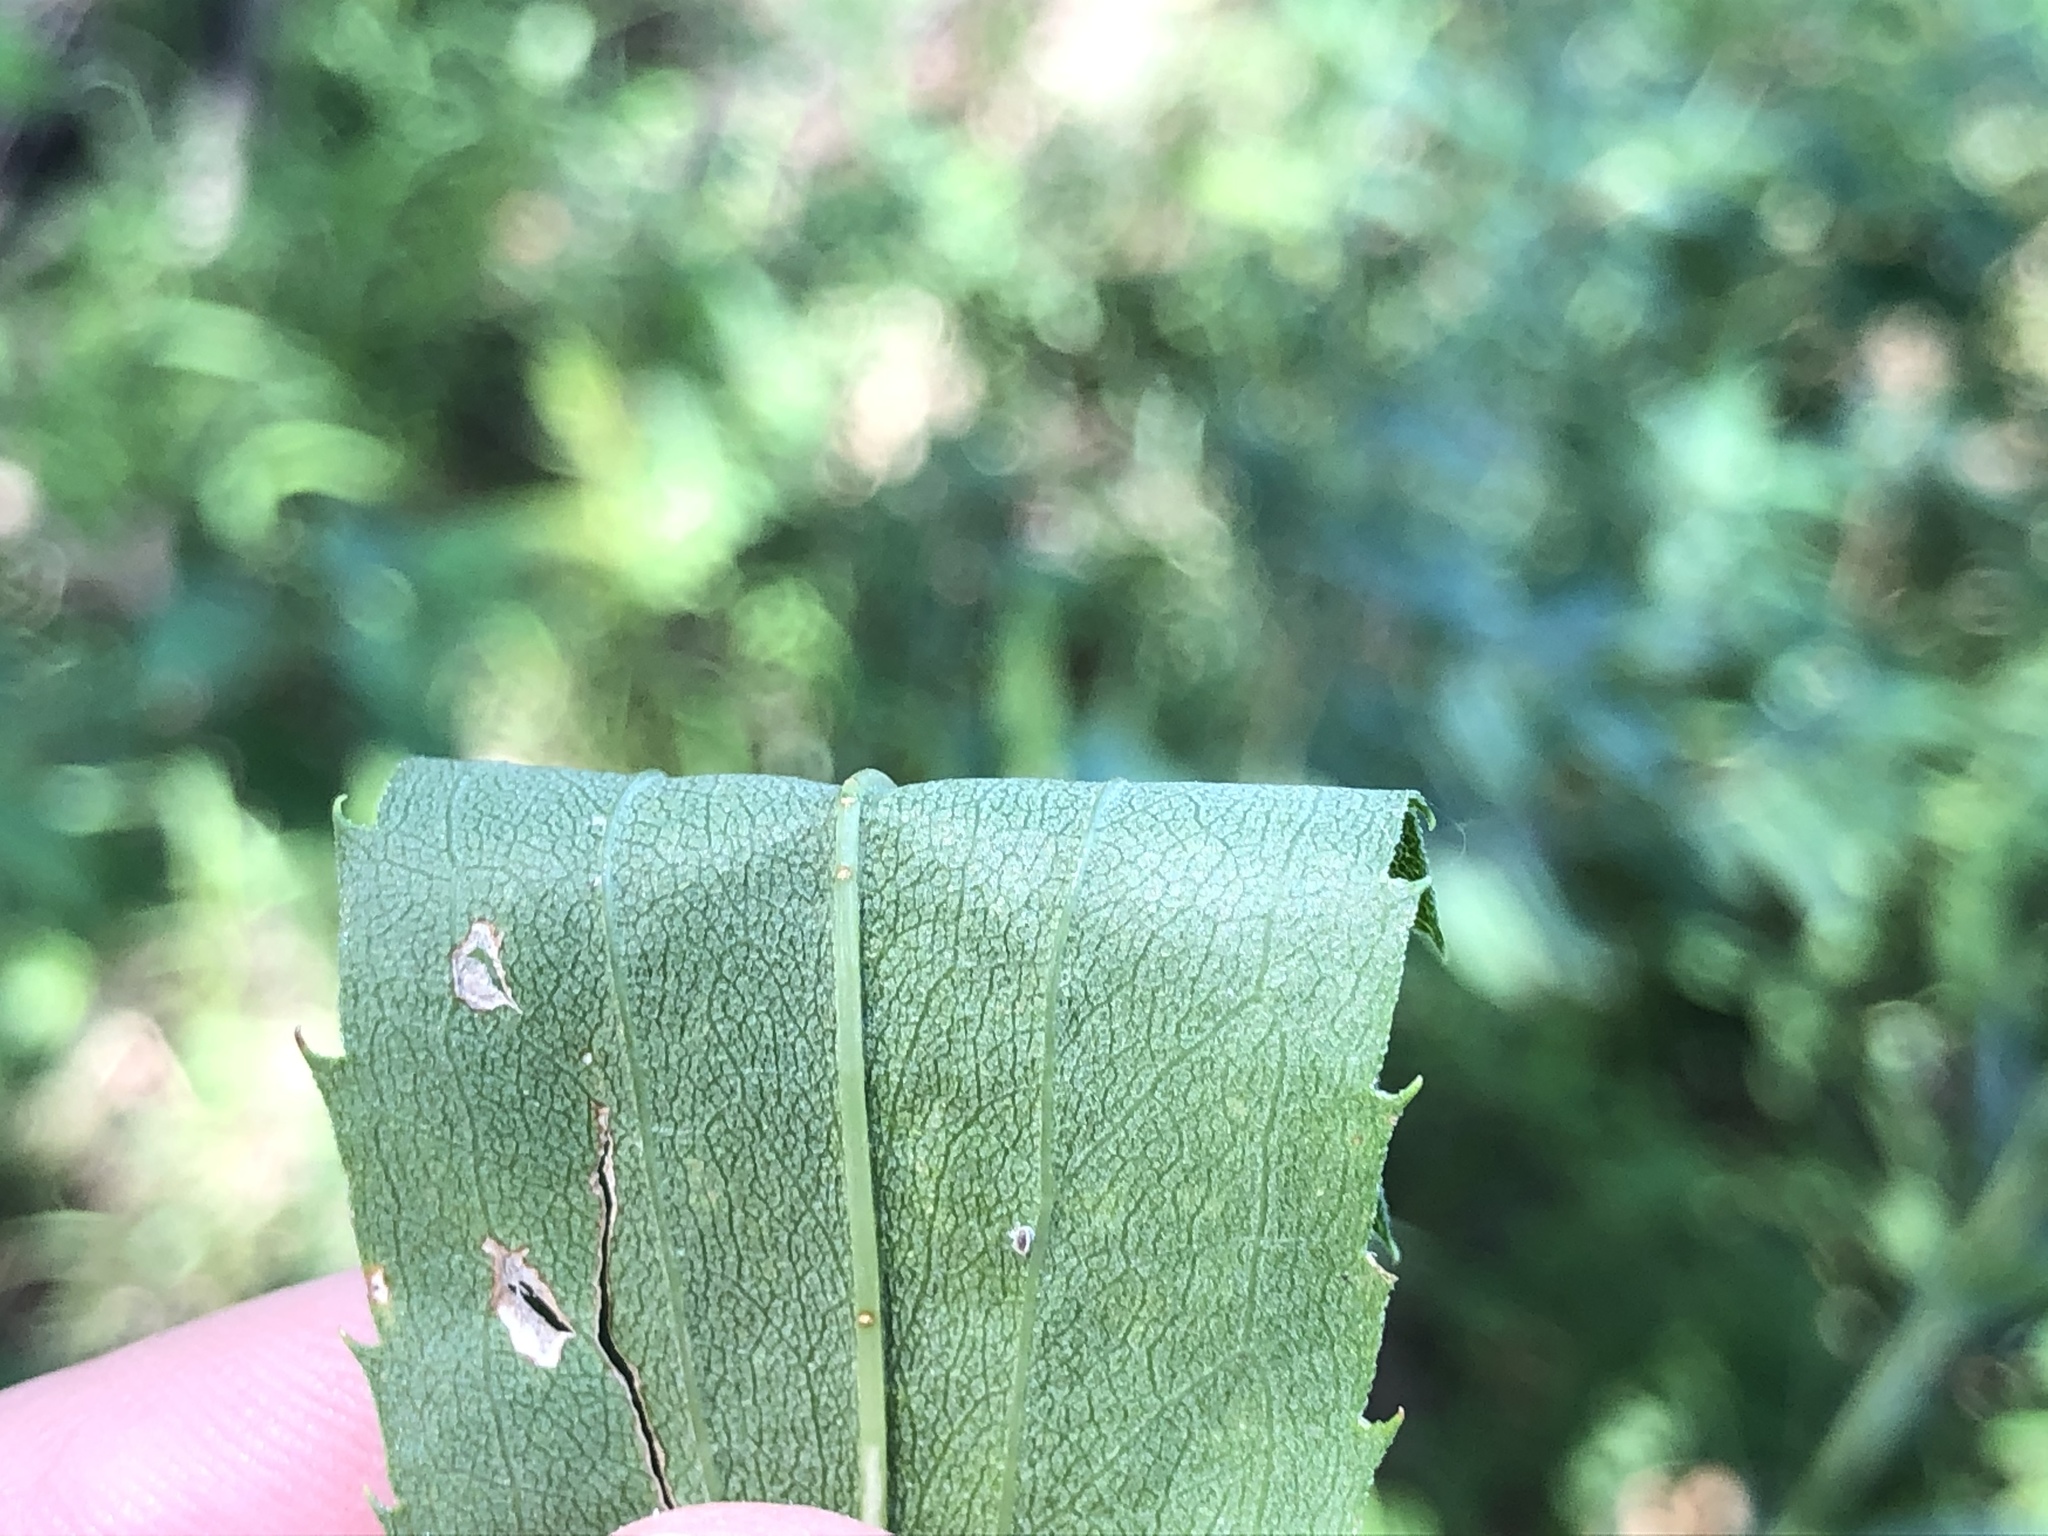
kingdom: Plantae
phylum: Tracheophyta
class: Magnoliopsida
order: Asterales
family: Asteraceae
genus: Solidago
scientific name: Solidago gigantea
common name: Giant goldenrod
